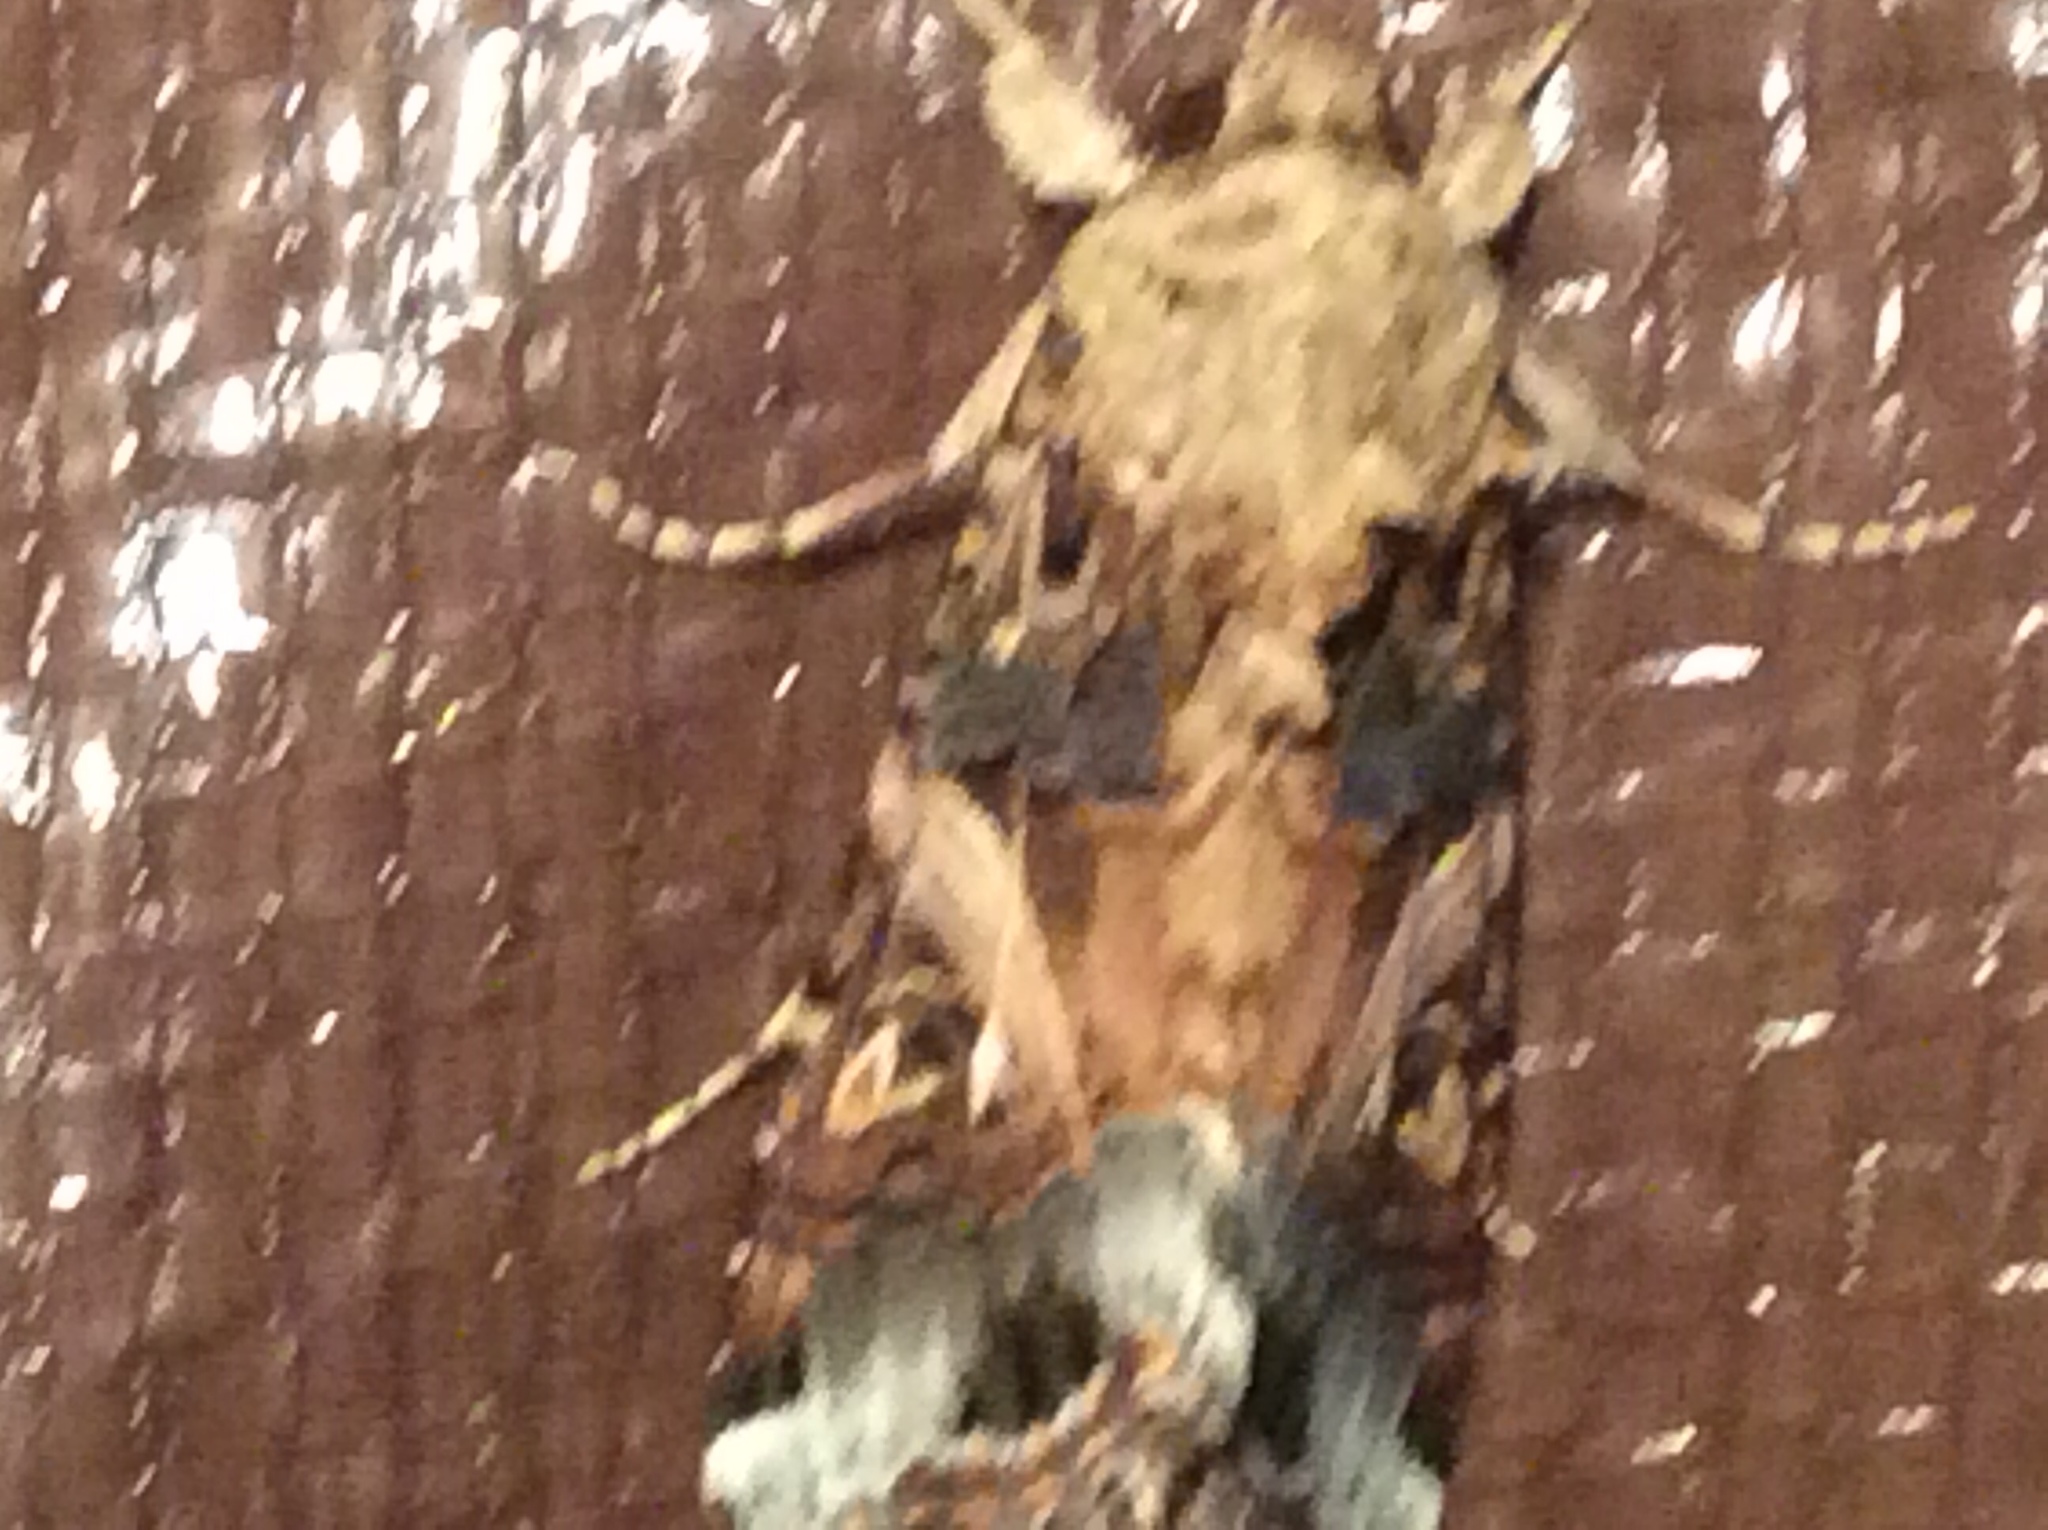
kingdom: Animalia
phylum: Arthropoda
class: Insecta
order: Lepidoptera
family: Noctuidae
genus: Spodoptera
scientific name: Spodoptera ornithogalli
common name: Yellow-striped armyworm
